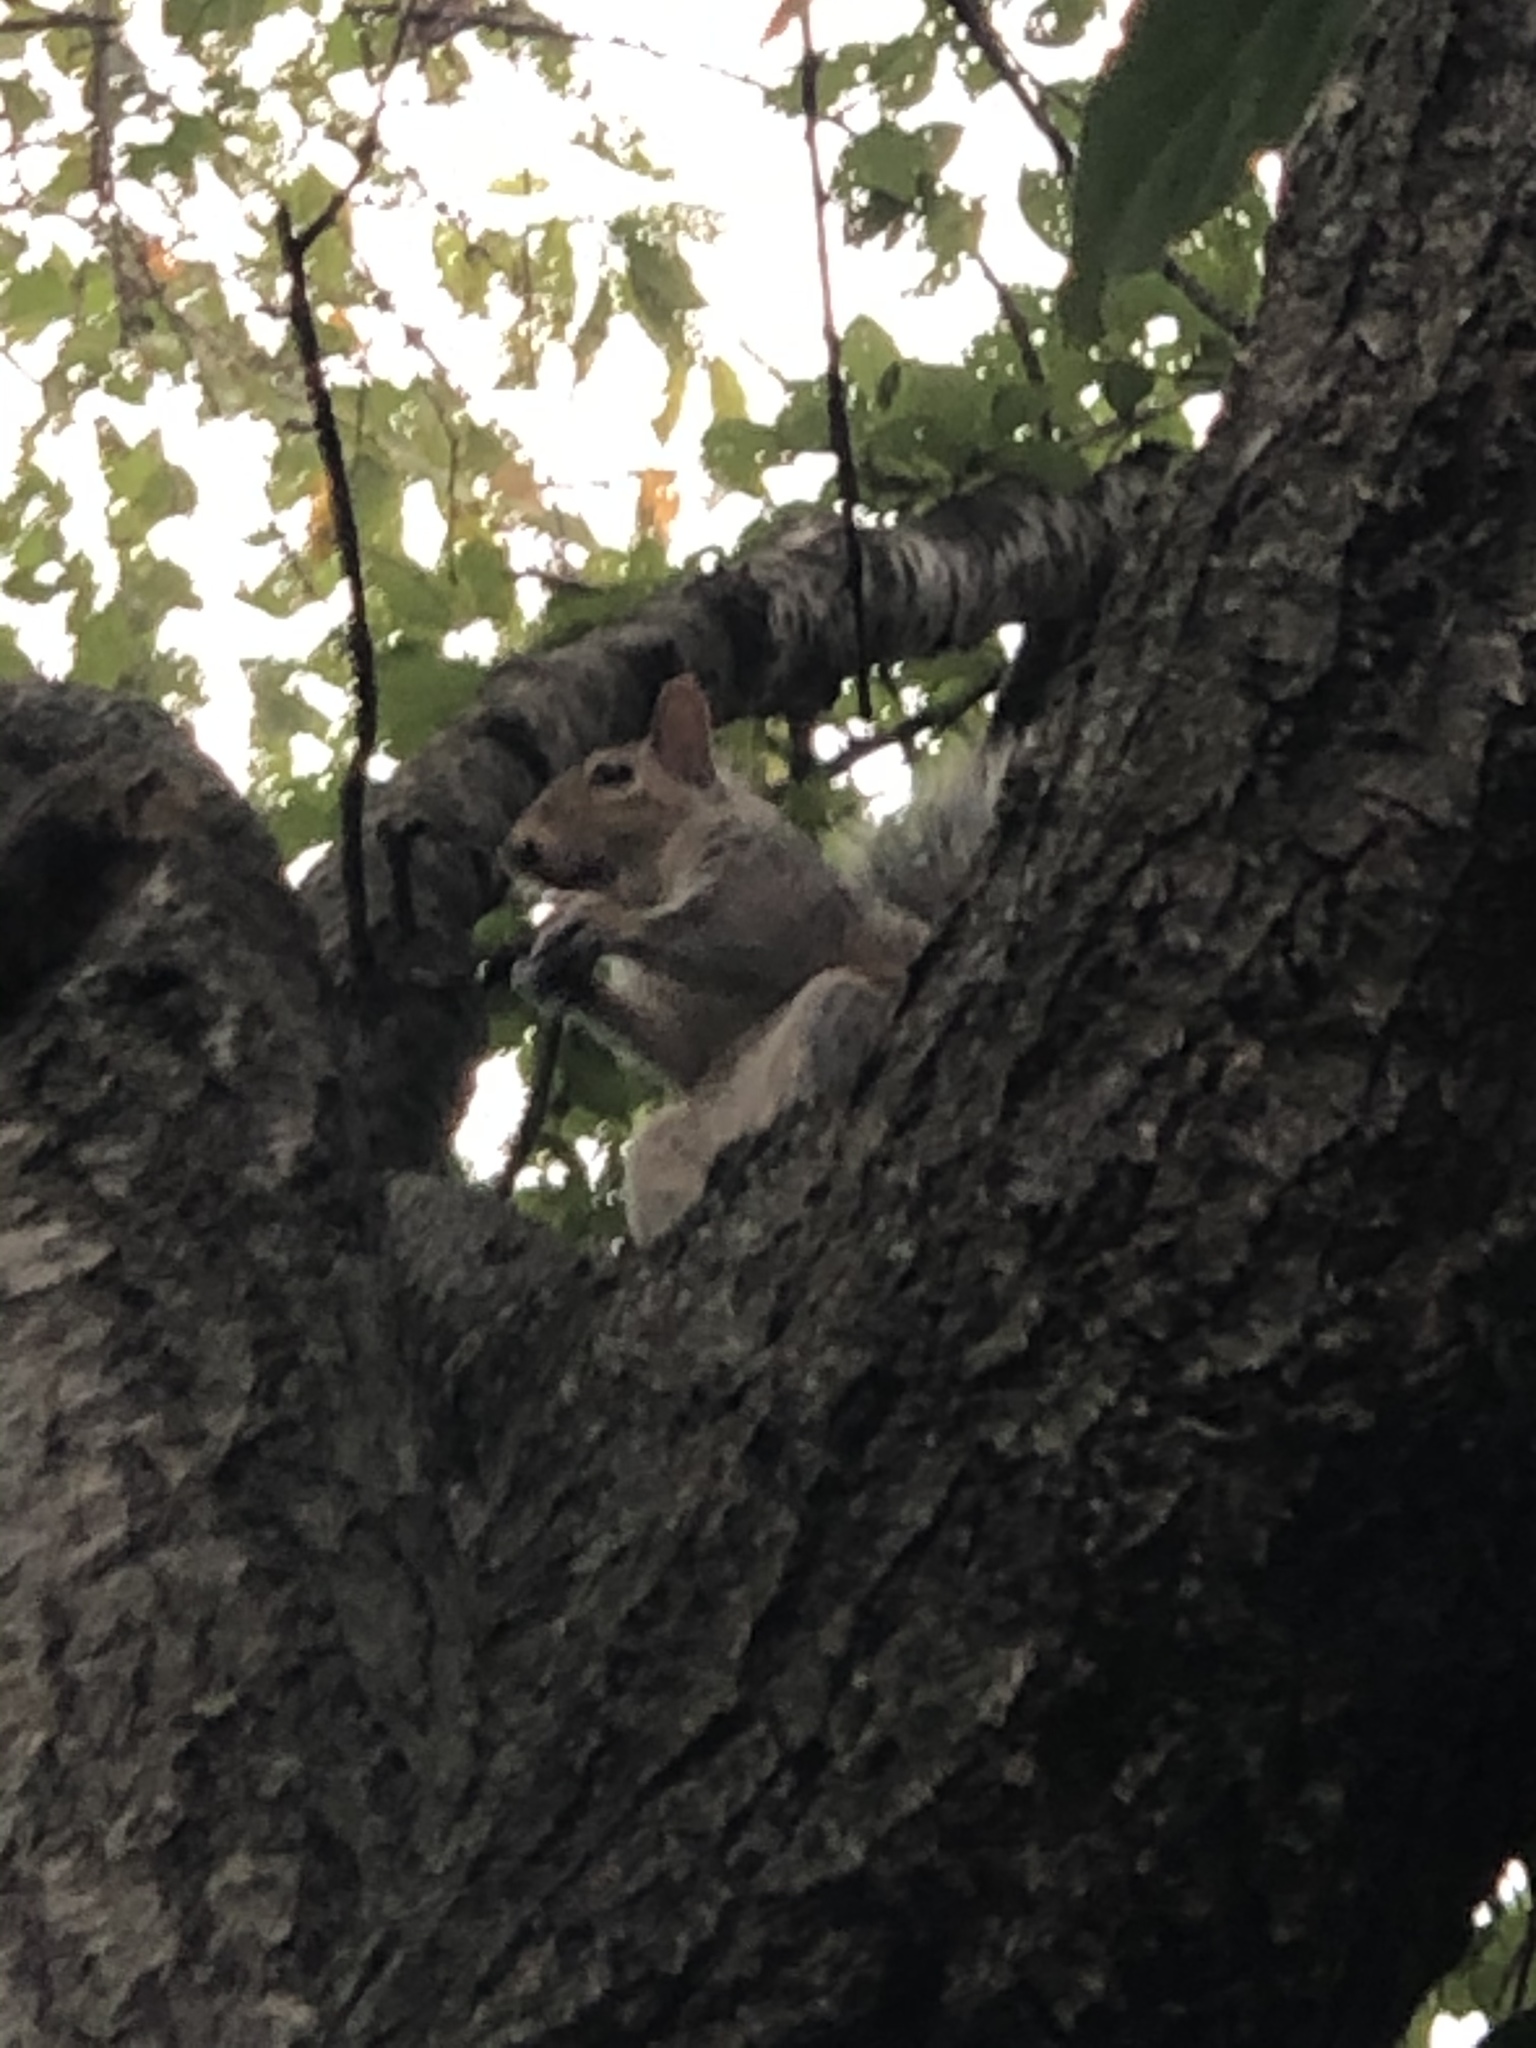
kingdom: Animalia
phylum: Chordata
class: Mammalia
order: Rodentia
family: Sciuridae
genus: Sciurus
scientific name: Sciurus carolinensis
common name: Eastern gray squirrel
